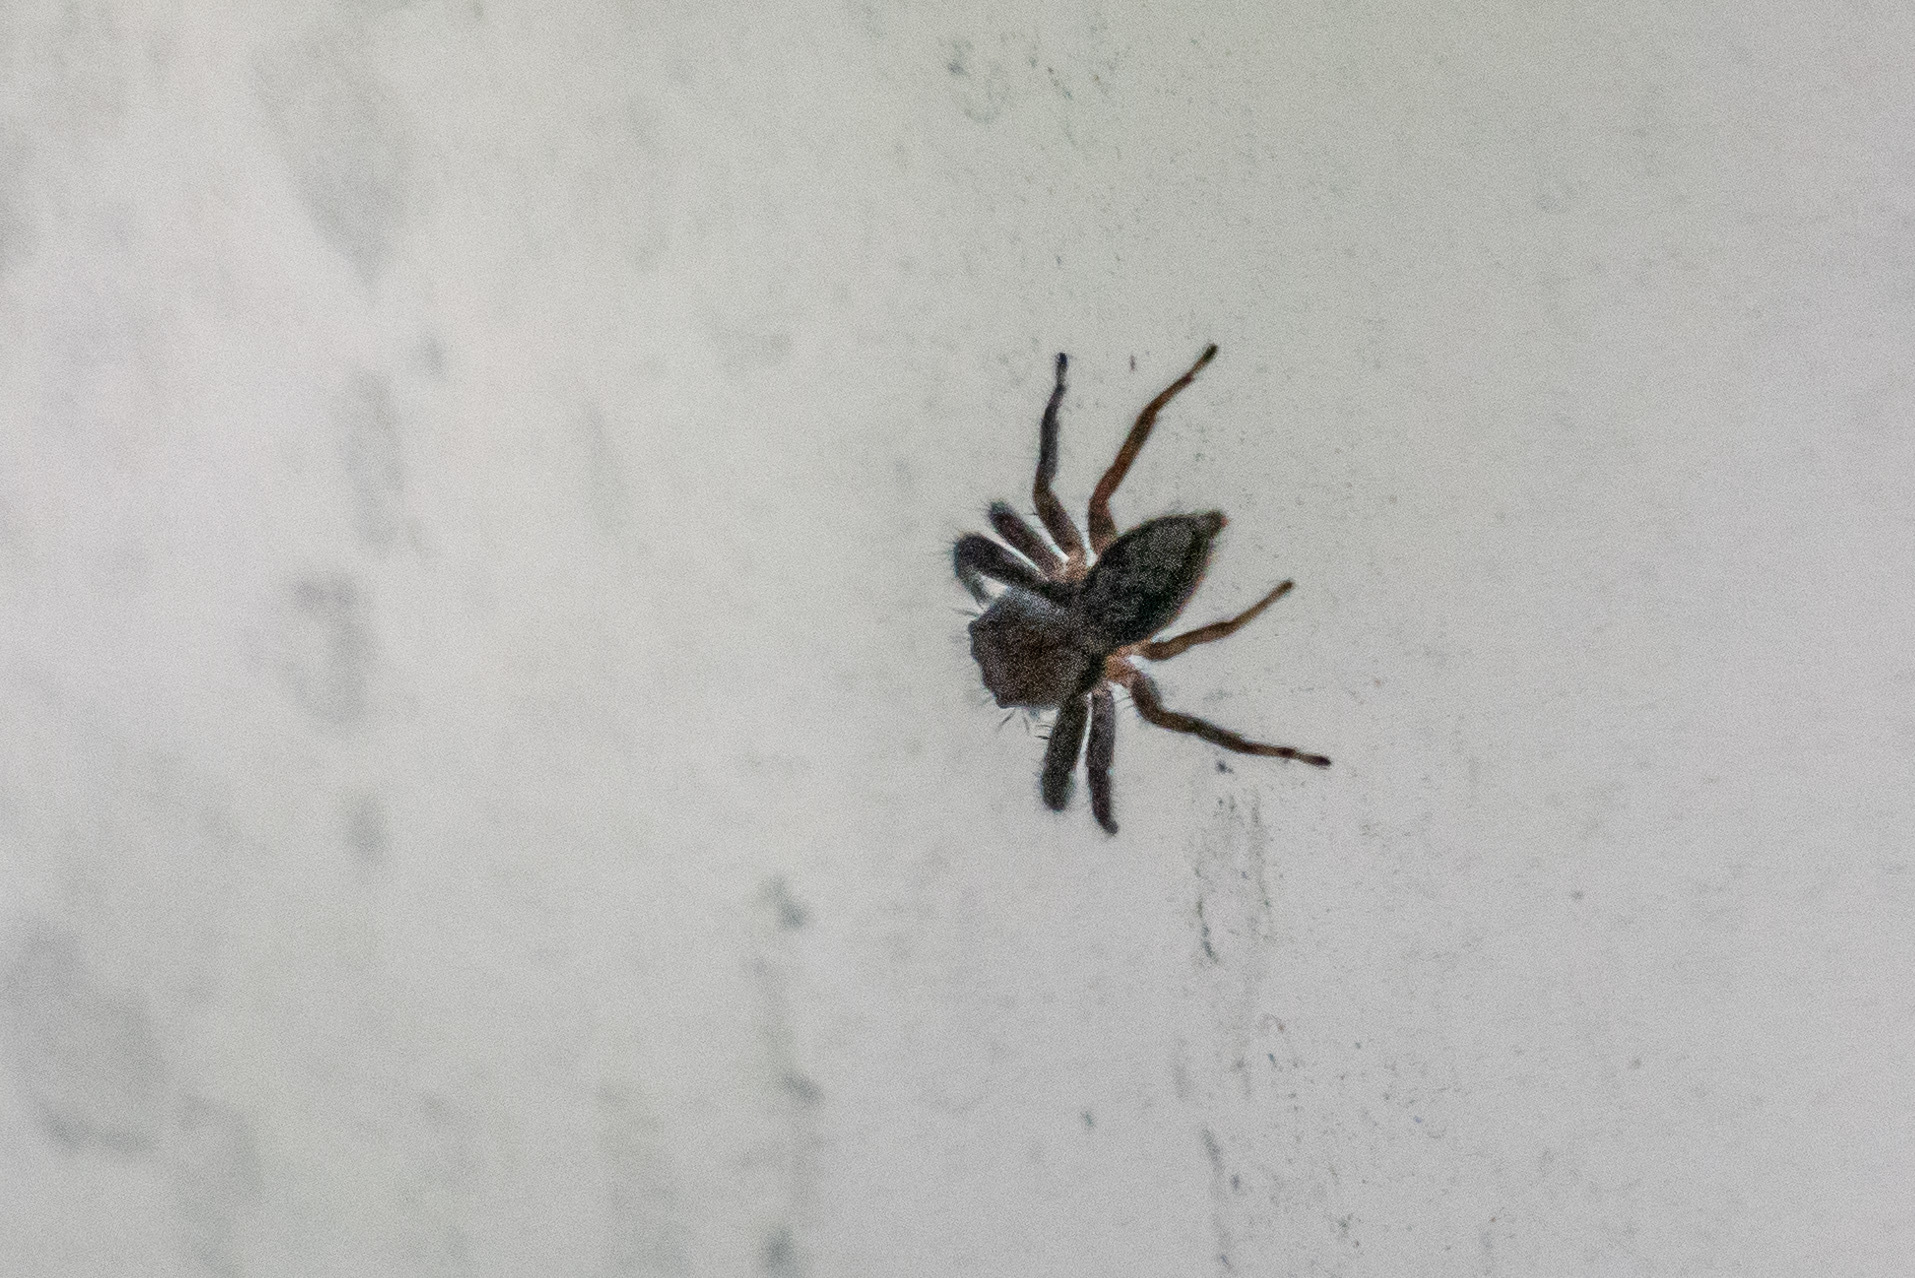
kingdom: Animalia
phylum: Arthropoda
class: Arachnida
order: Araneae
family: Salticidae
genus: Platycryptus
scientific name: Platycryptus undatus
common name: Tan jumping spider
